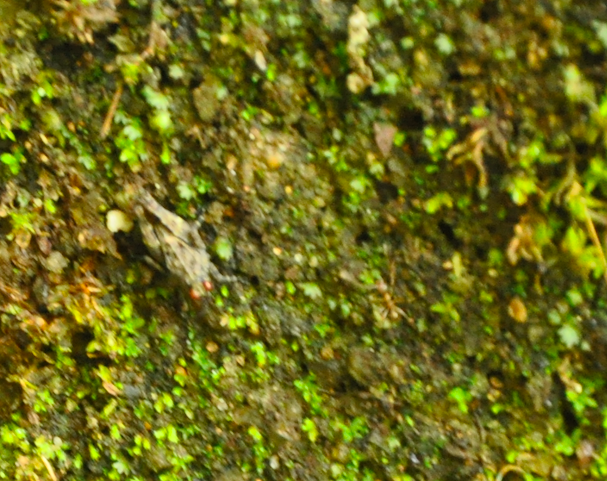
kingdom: Animalia
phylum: Arthropoda
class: Insecta
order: Orthoptera
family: Tetrigidae
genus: Oxytettix
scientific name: Oxytettix arius
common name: Yellow-dot black pygmy grasshopper
